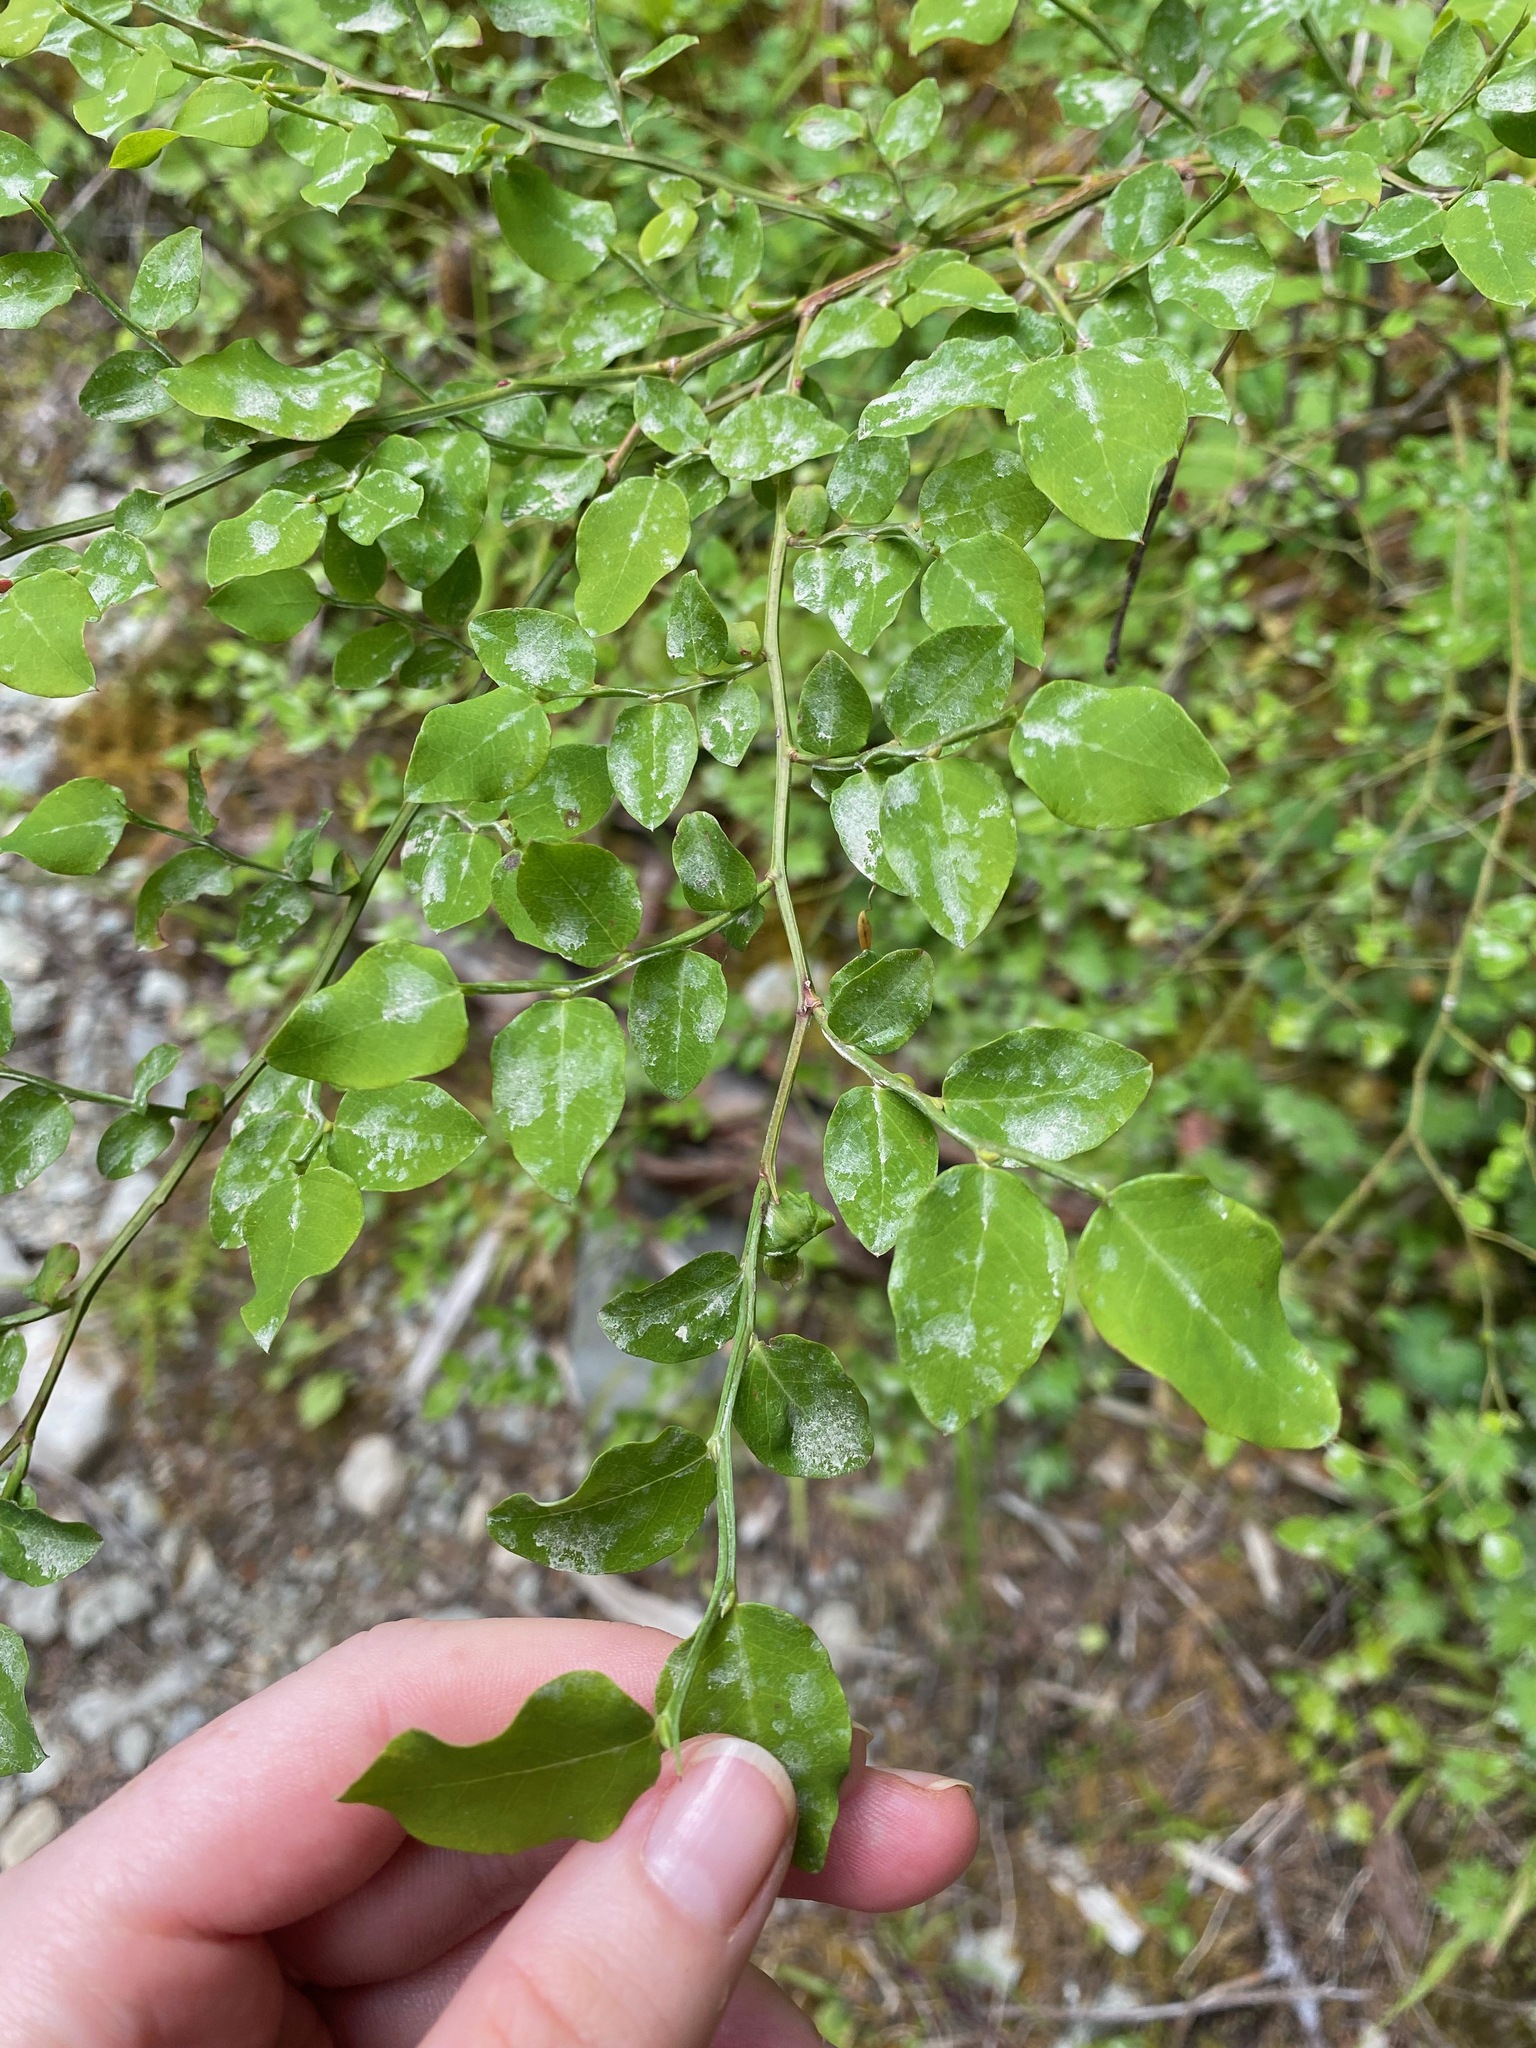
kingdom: Plantae
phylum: Tracheophyta
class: Magnoliopsida
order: Ericales
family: Ericaceae
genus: Vaccinium
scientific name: Vaccinium parvifolium
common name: Red-huckleberry
